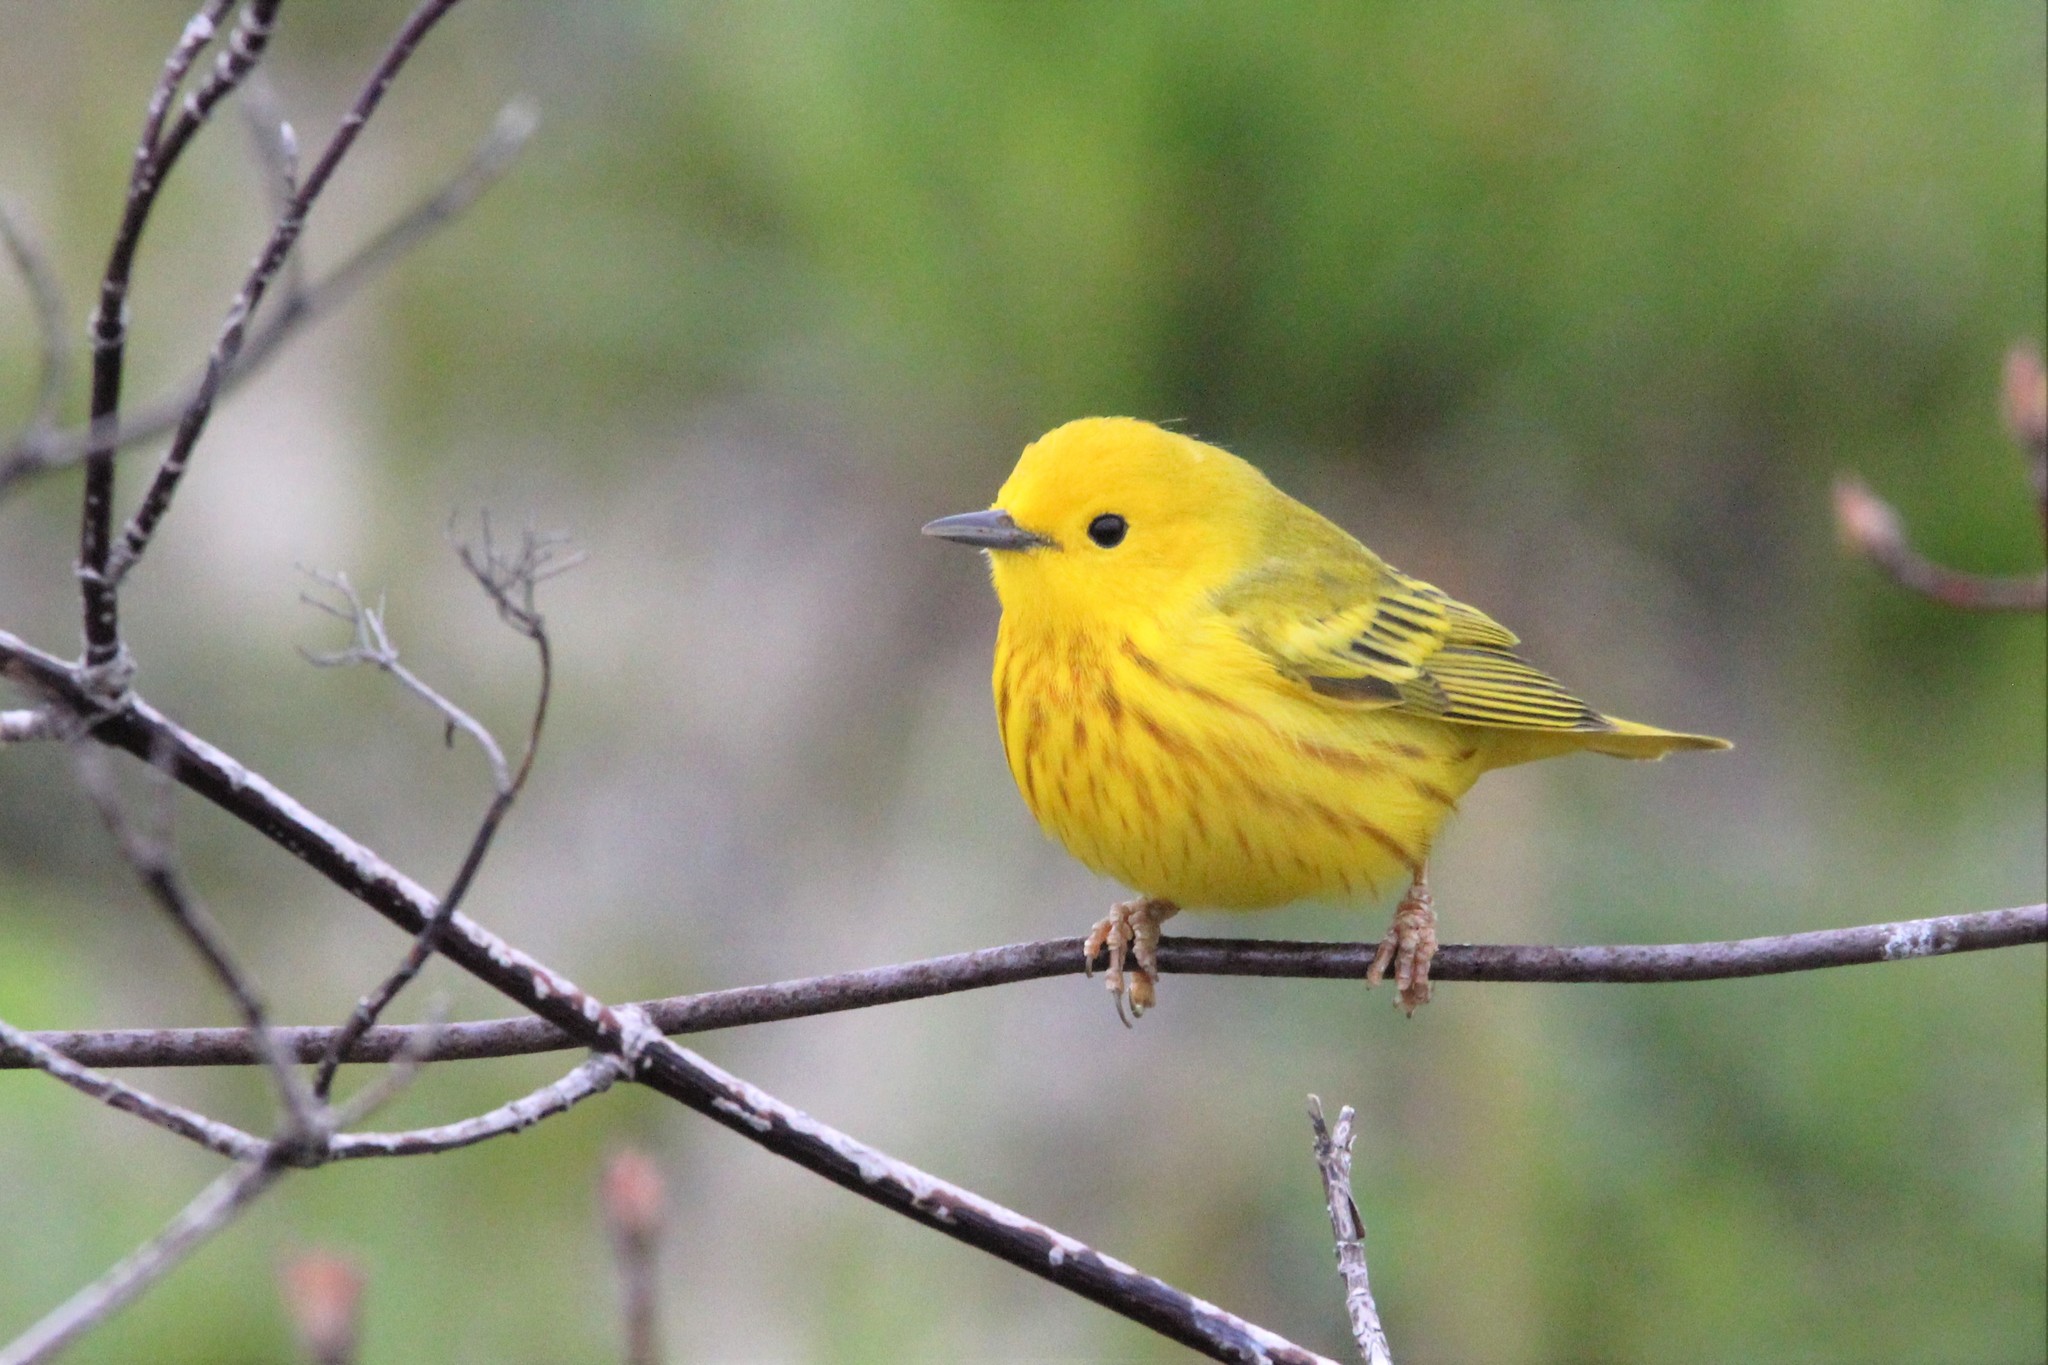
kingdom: Animalia
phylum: Chordata
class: Aves
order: Passeriformes
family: Parulidae
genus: Setophaga
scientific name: Setophaga petechia
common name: Yellow warbler
